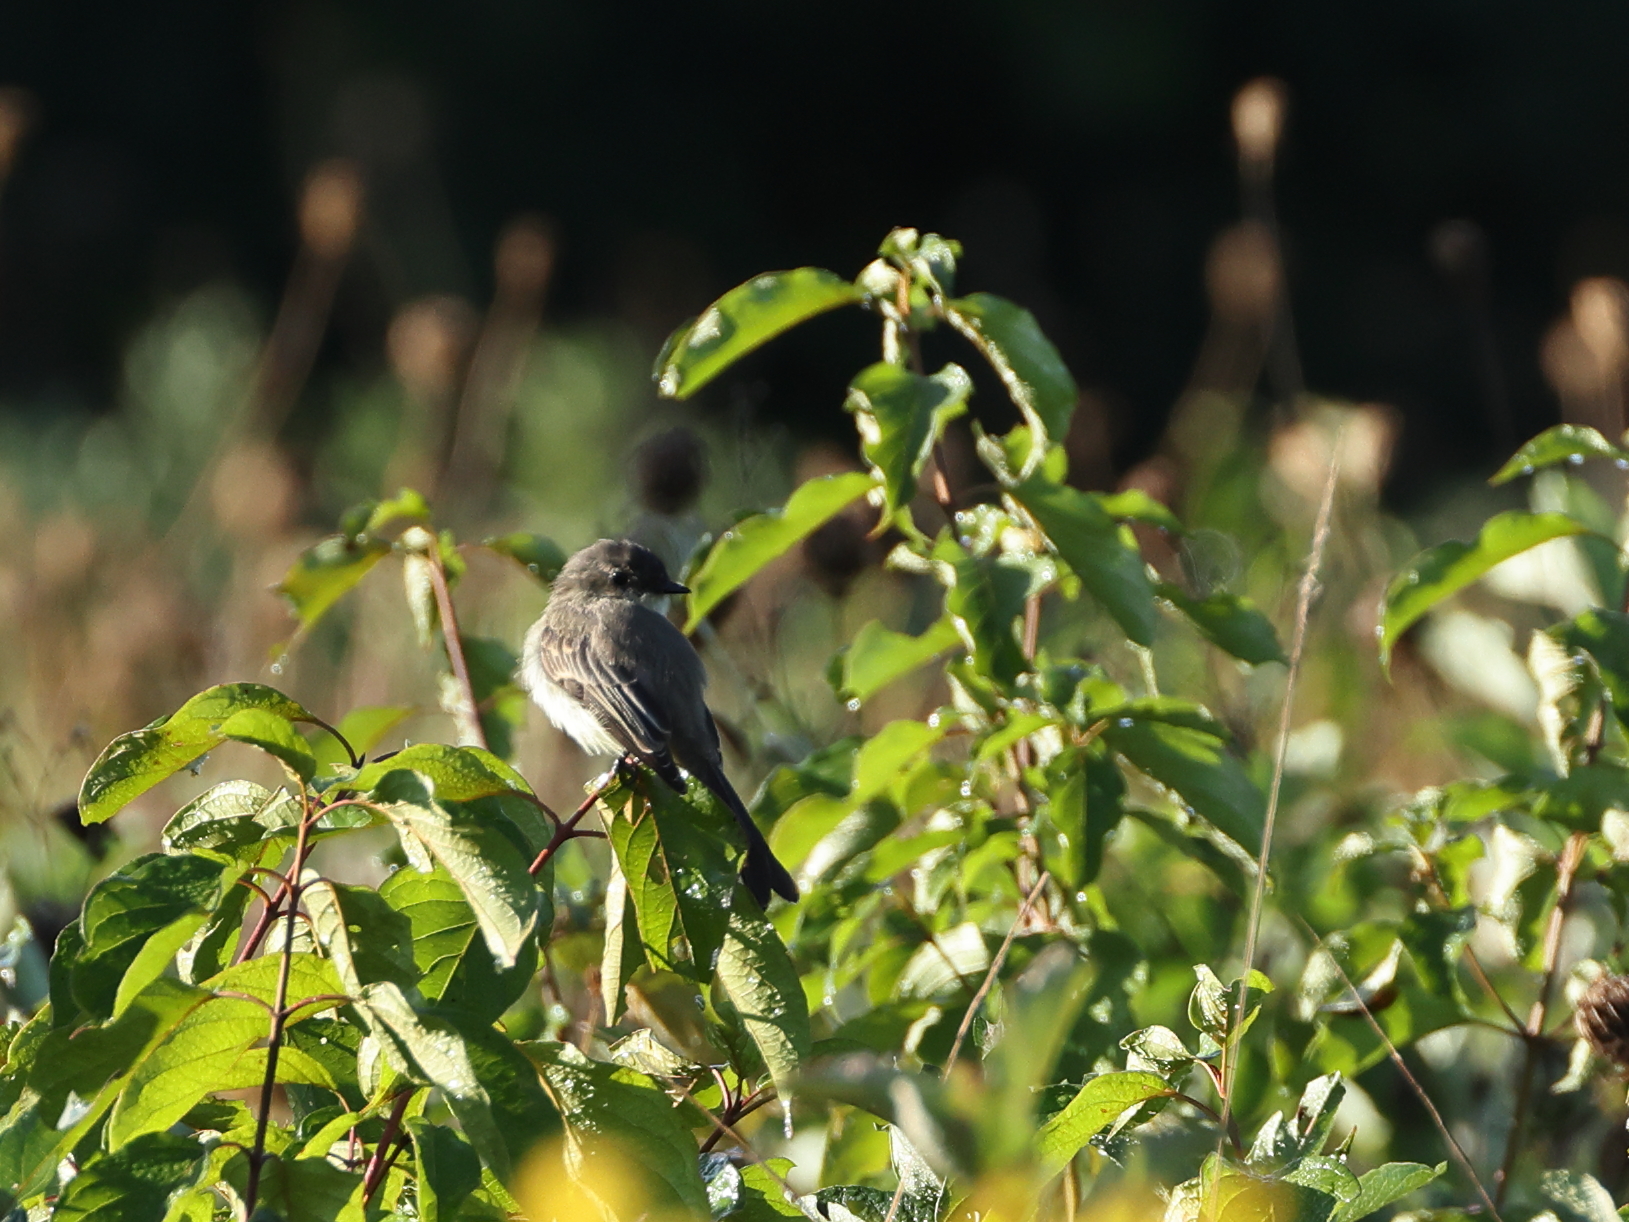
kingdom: Animalia
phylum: Chordata
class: Aves
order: Passeriformes
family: Tyrannidae
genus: Sayornis
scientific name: Sayornis phoebe
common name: Eastern phoebe
